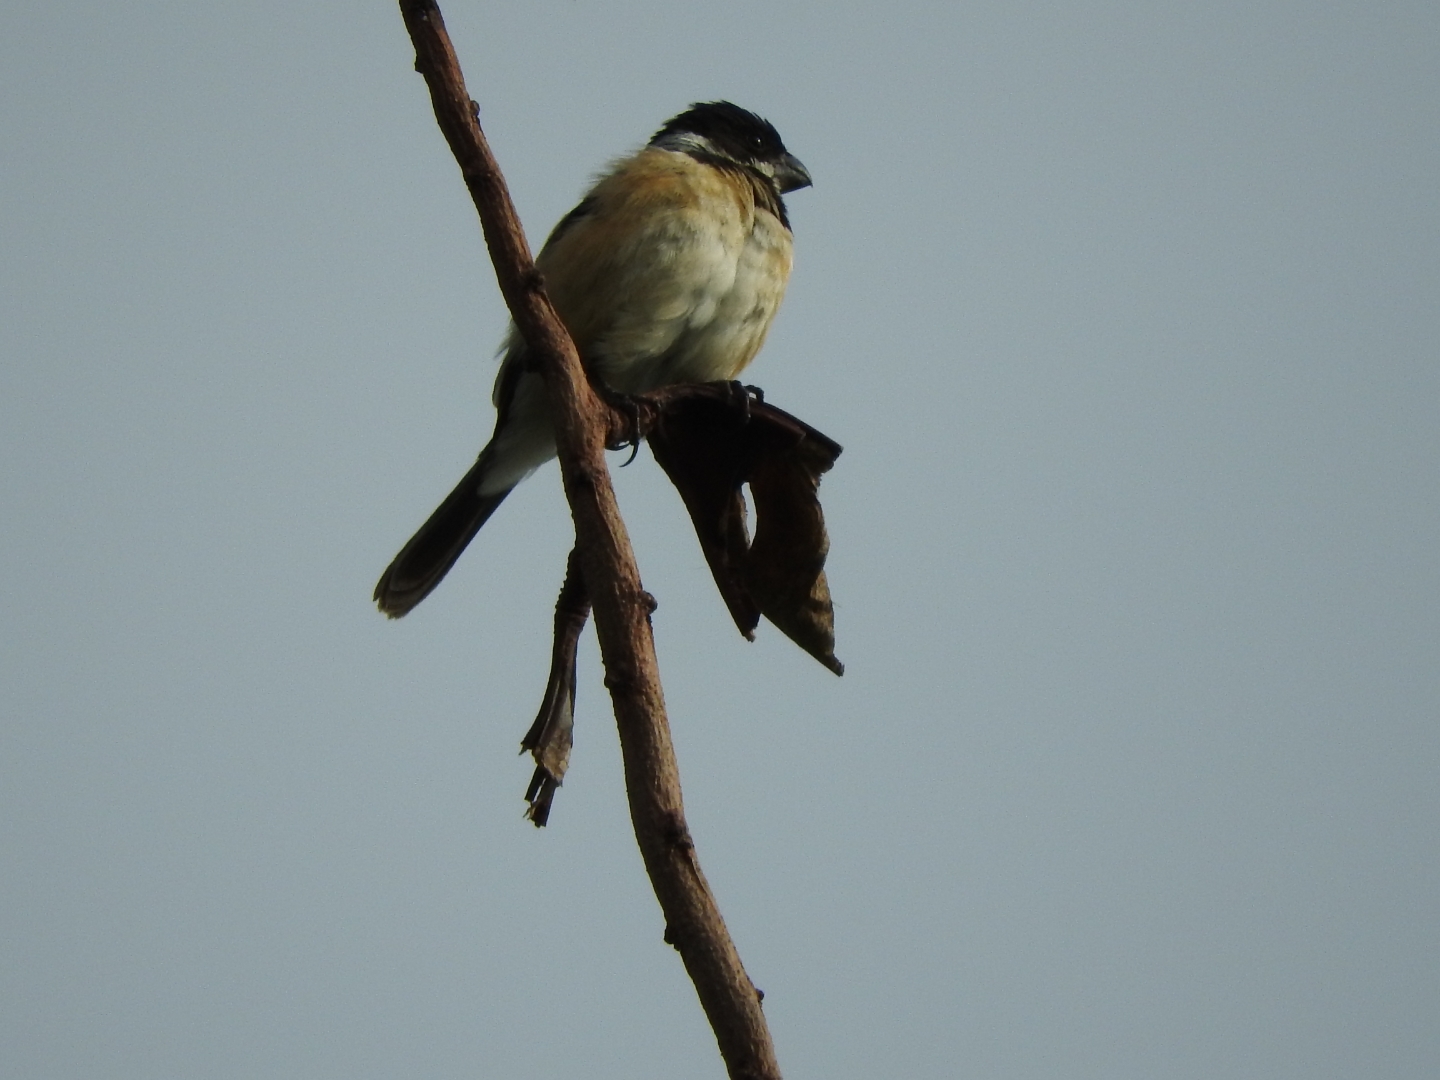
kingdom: Animalia
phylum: Chordata
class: Aves
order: Passeriformes
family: Thraupidae
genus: Sporophila
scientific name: Sporophila torqueola
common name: White-collared seedeater
